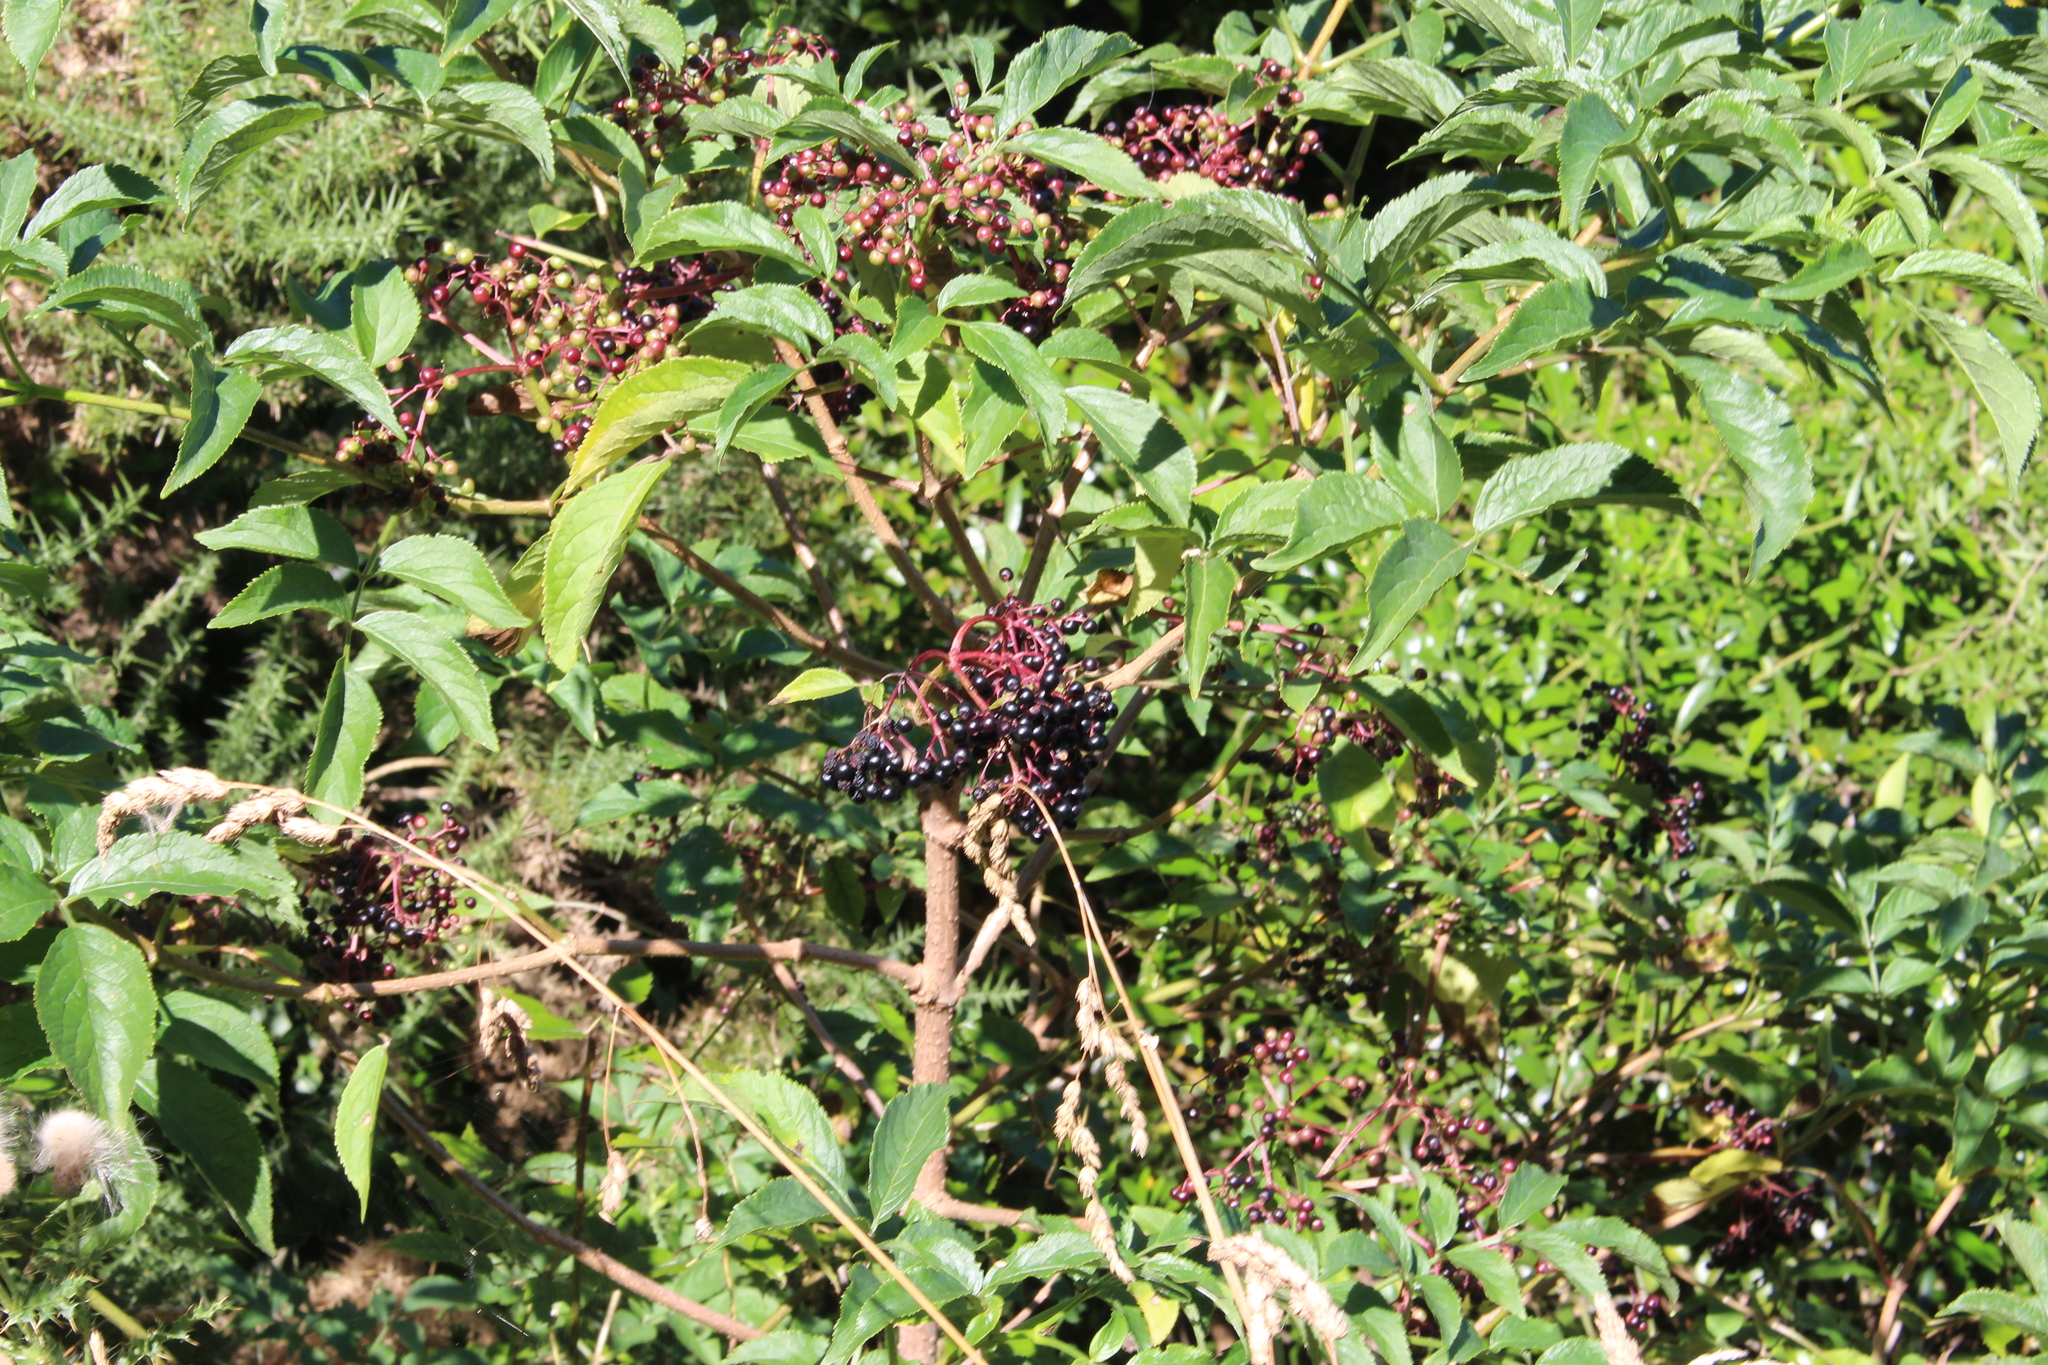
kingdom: Plantae
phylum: Tracheophyta
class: Magnoliopsida
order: Dipsacales
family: Viburnaceae
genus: Sambucus
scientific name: Sambucus nigra
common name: Elder
